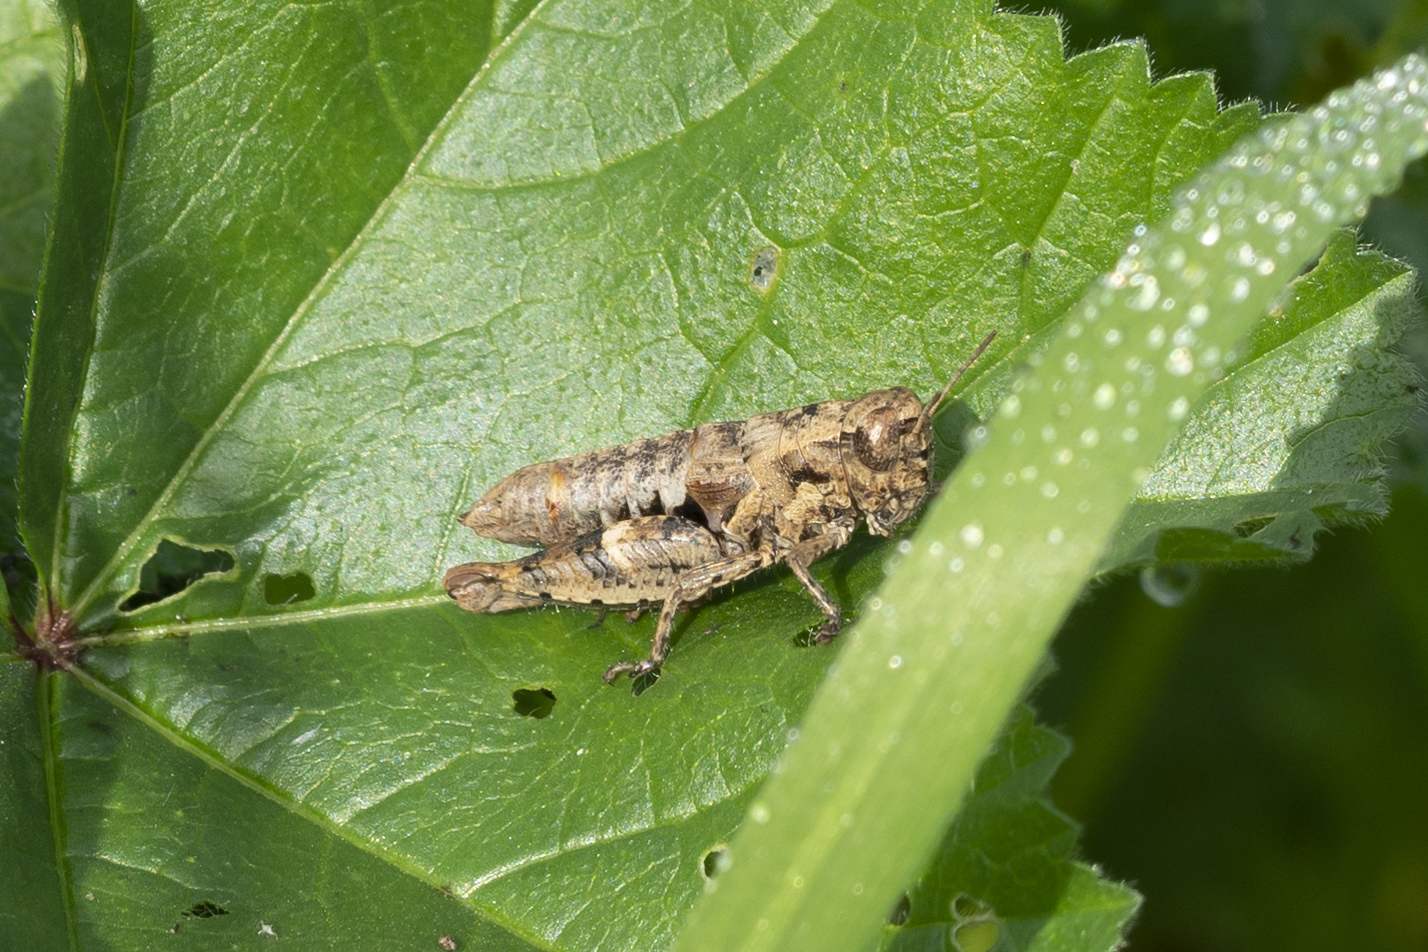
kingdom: Animalia
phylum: Arthropoda
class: Insecta
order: Orthoptera
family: Acrididae
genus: Pezotettix
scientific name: Pezotettix lagoi
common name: Rhodes maquis grasshopper
